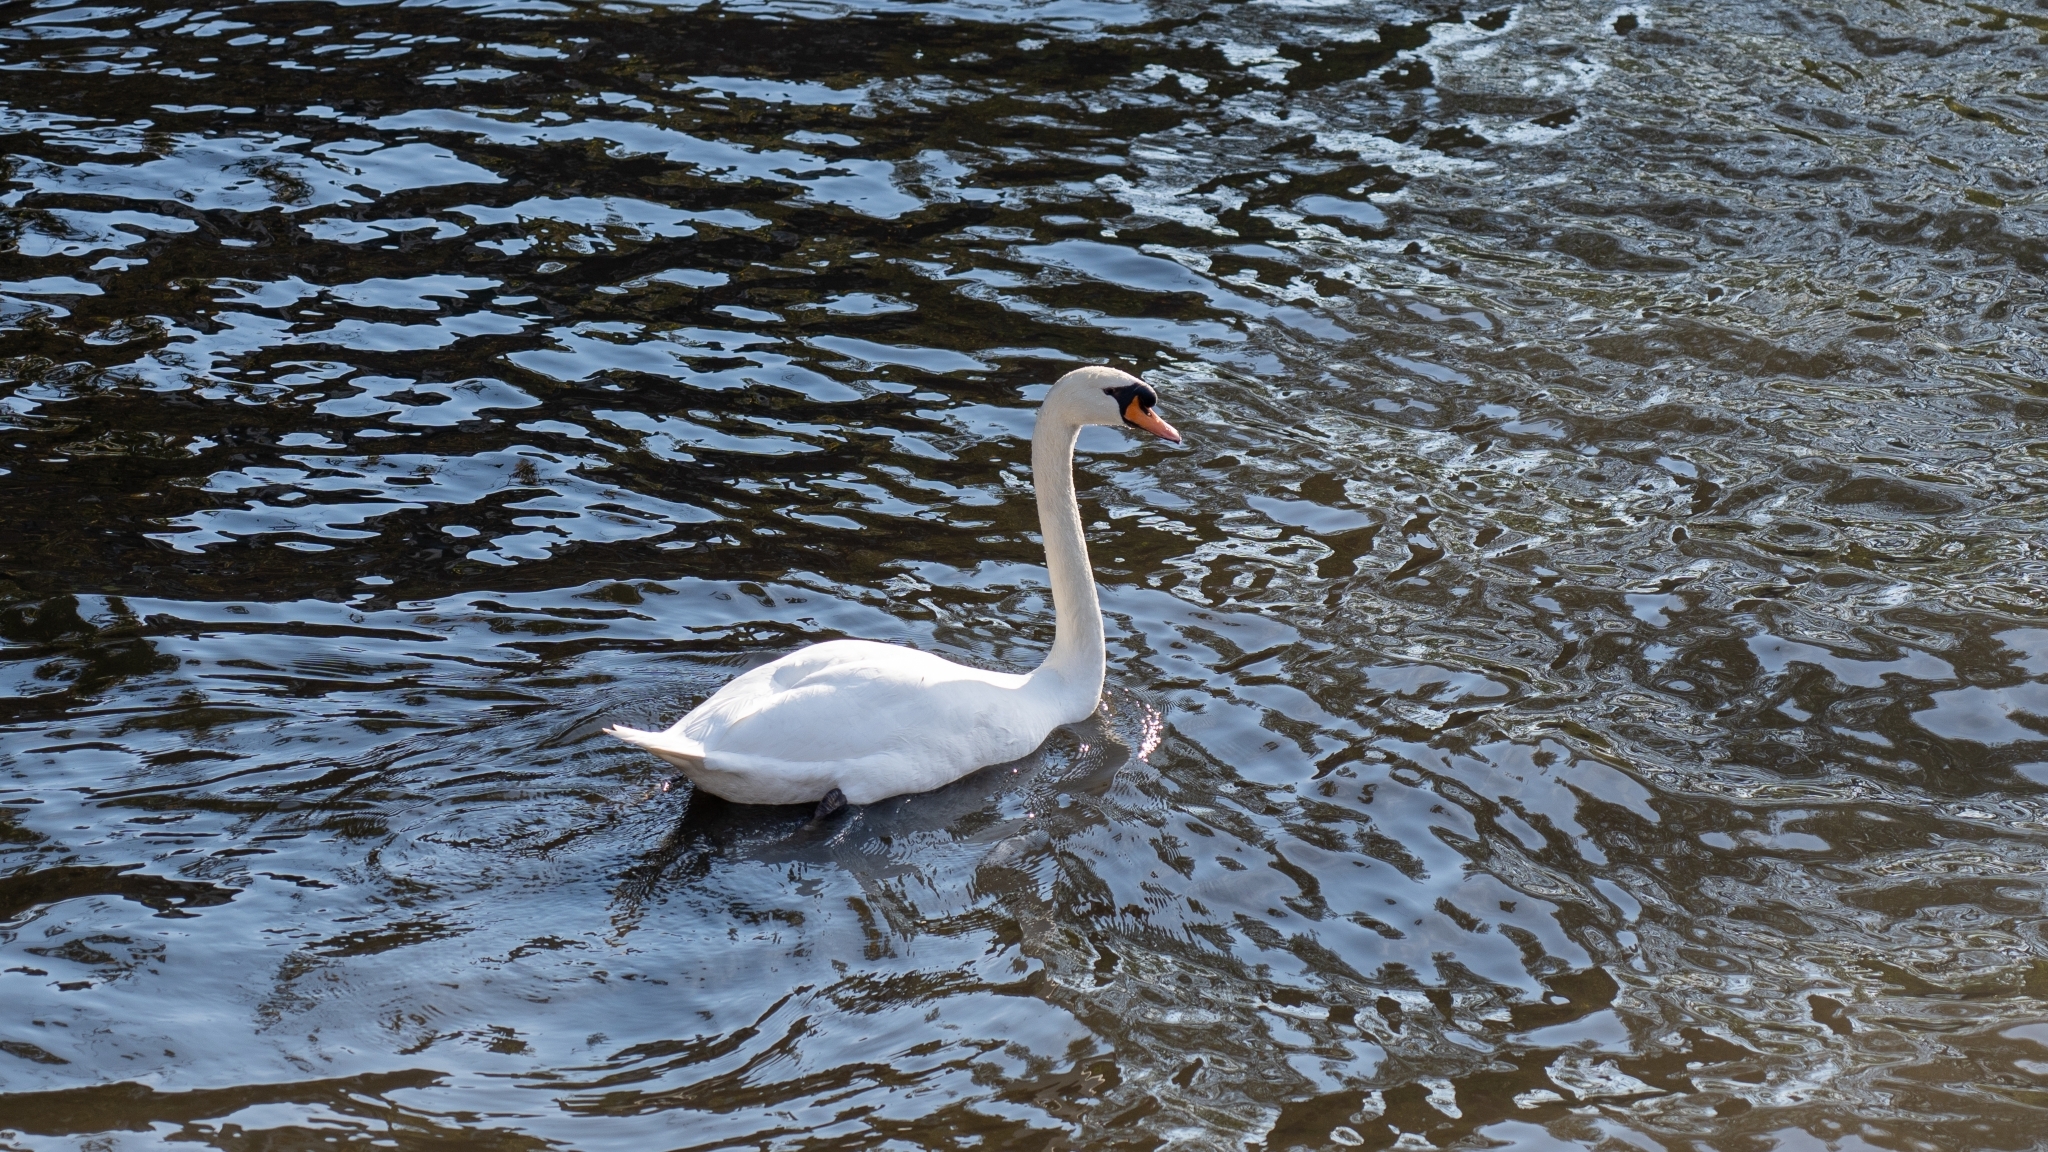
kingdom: Animalia
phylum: Chordata
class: Aves
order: Anseriformes
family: Anatidae
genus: Cygnus
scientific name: Cygnus olor
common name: Mute swan
